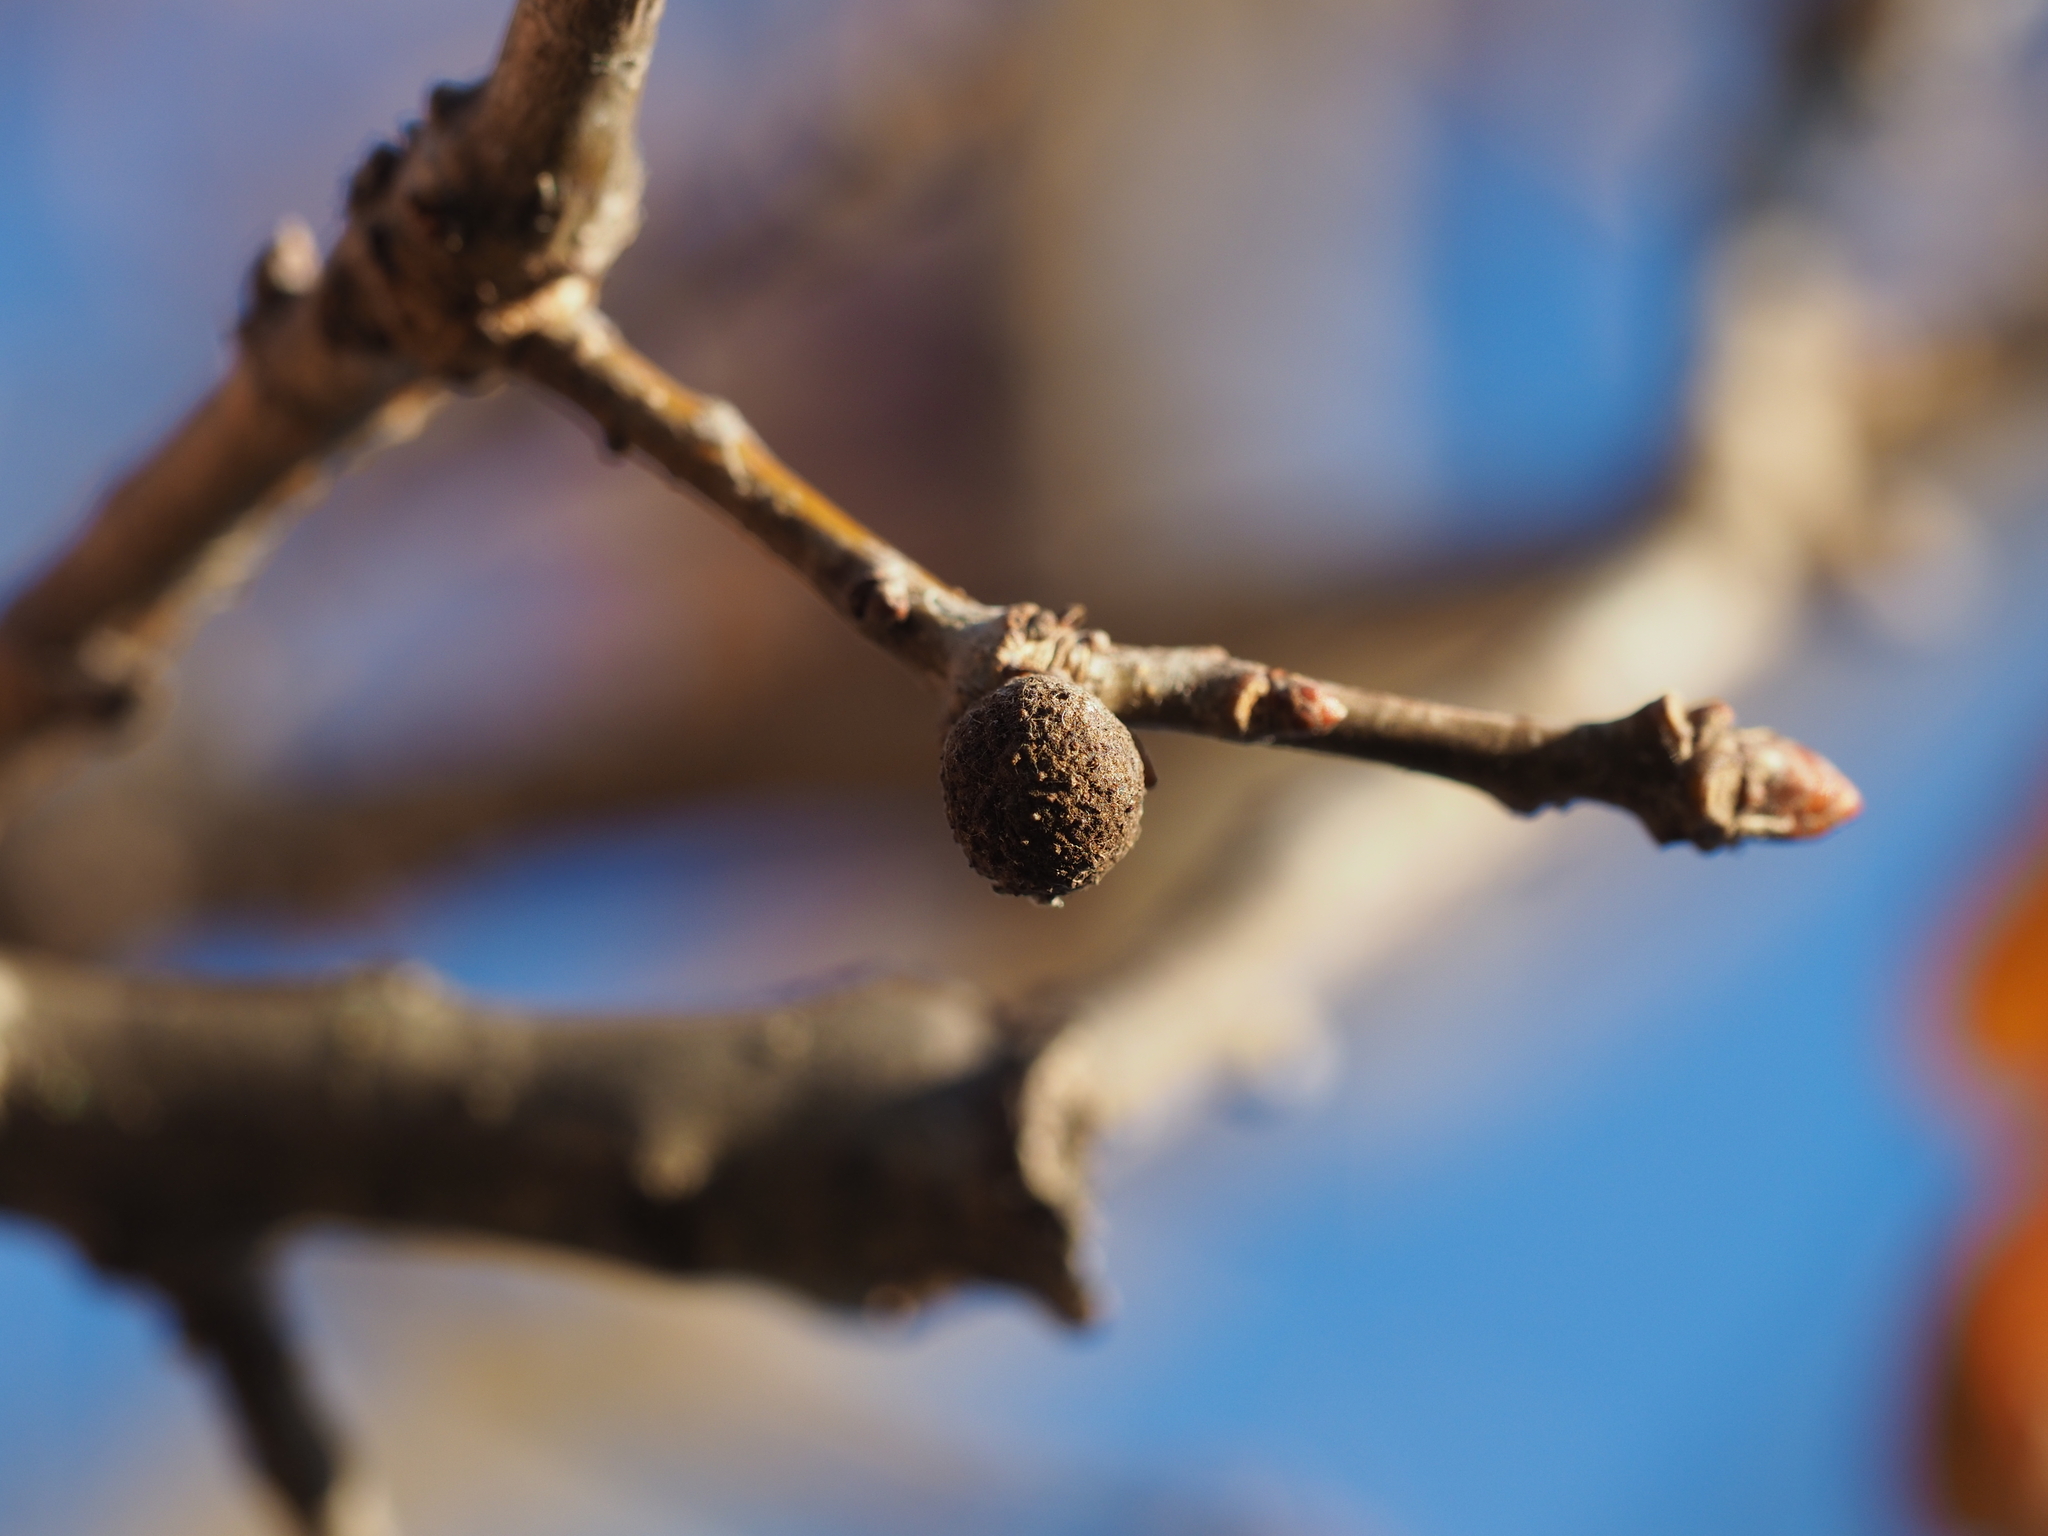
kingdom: Animalia
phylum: Arthropoda
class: Insecta
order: Hymenoptera
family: Cynipidae
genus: Andricus
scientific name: Andricus caliciformis
